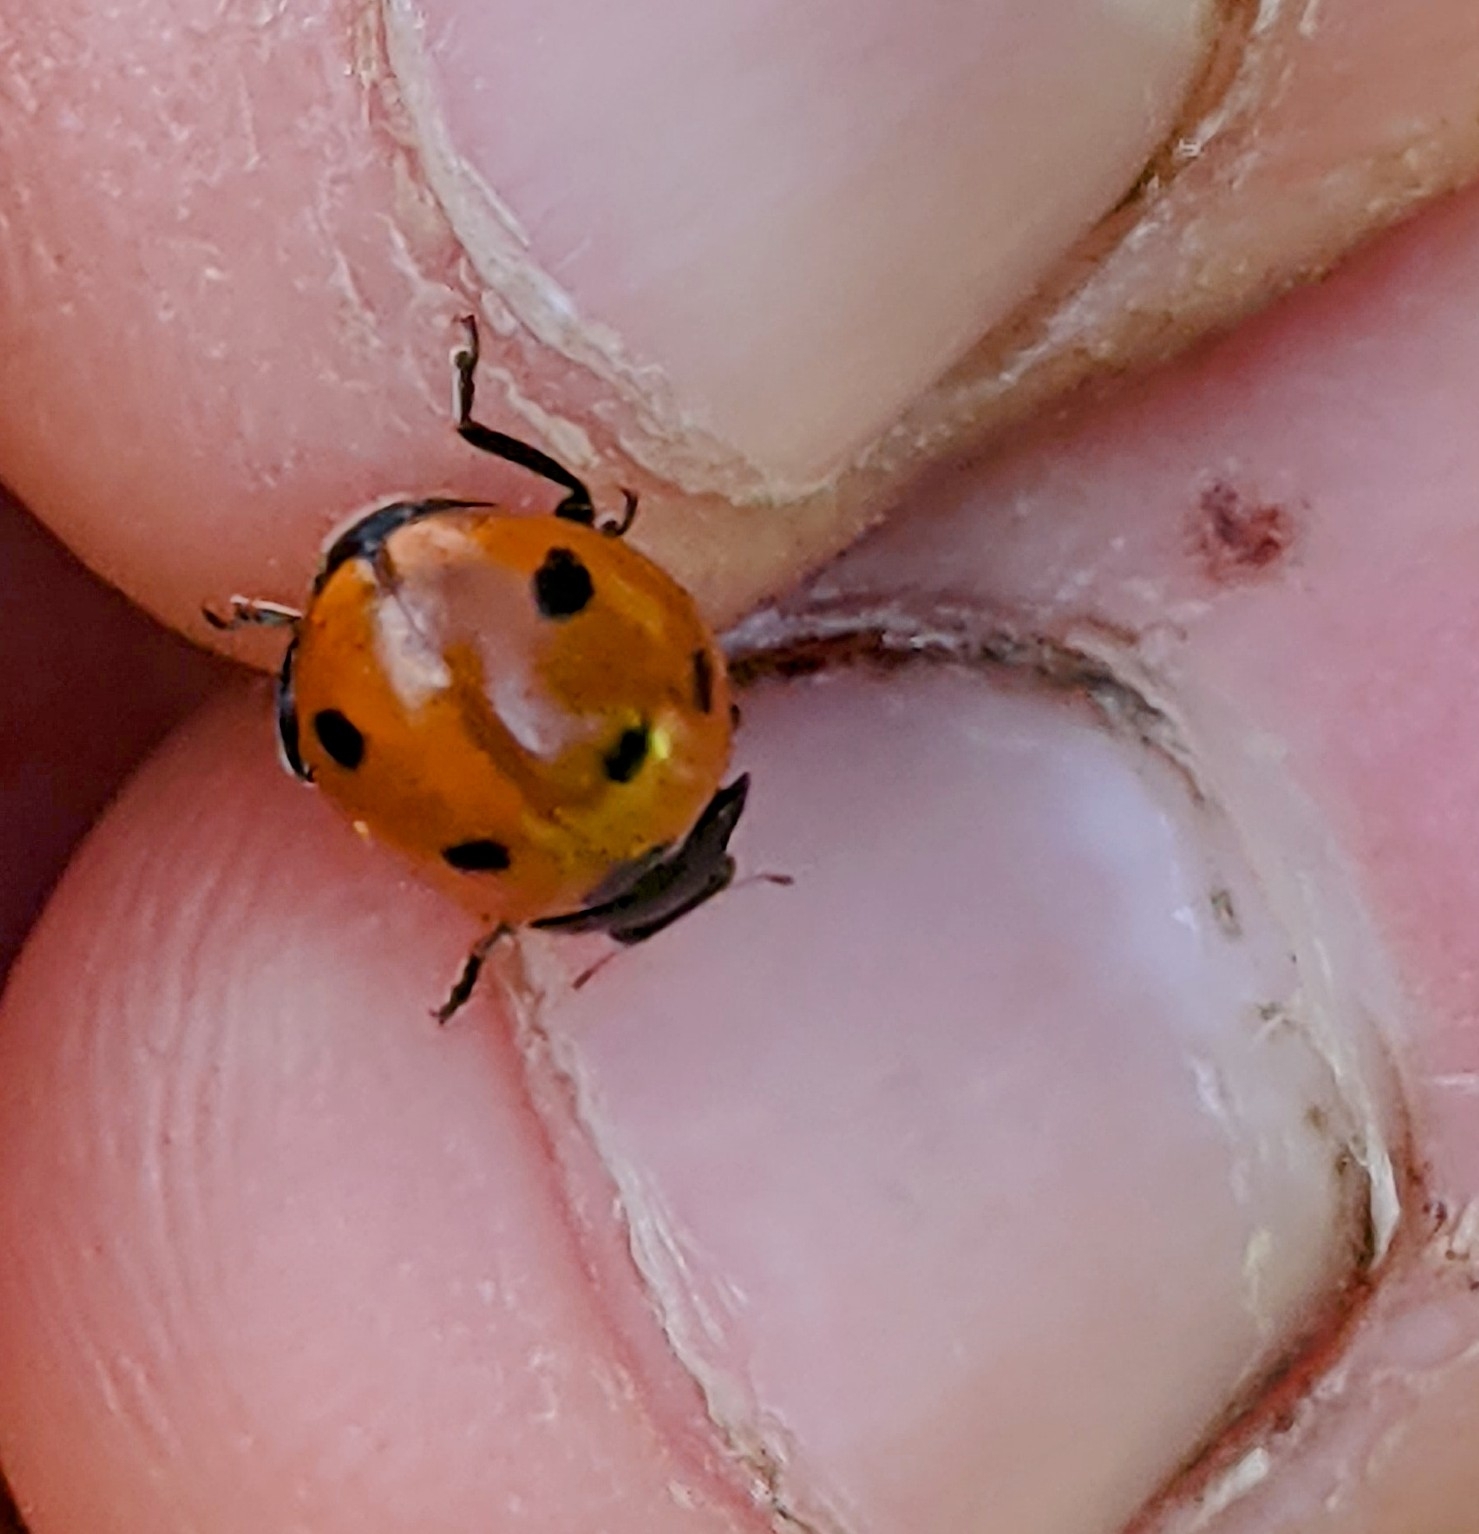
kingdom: Animalia
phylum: Arthropoda
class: Insecta
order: Coleoptera
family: Coccinellidae
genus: Coccinella
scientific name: Coccinella septempunctata
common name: Sevenspotted lady beetle
